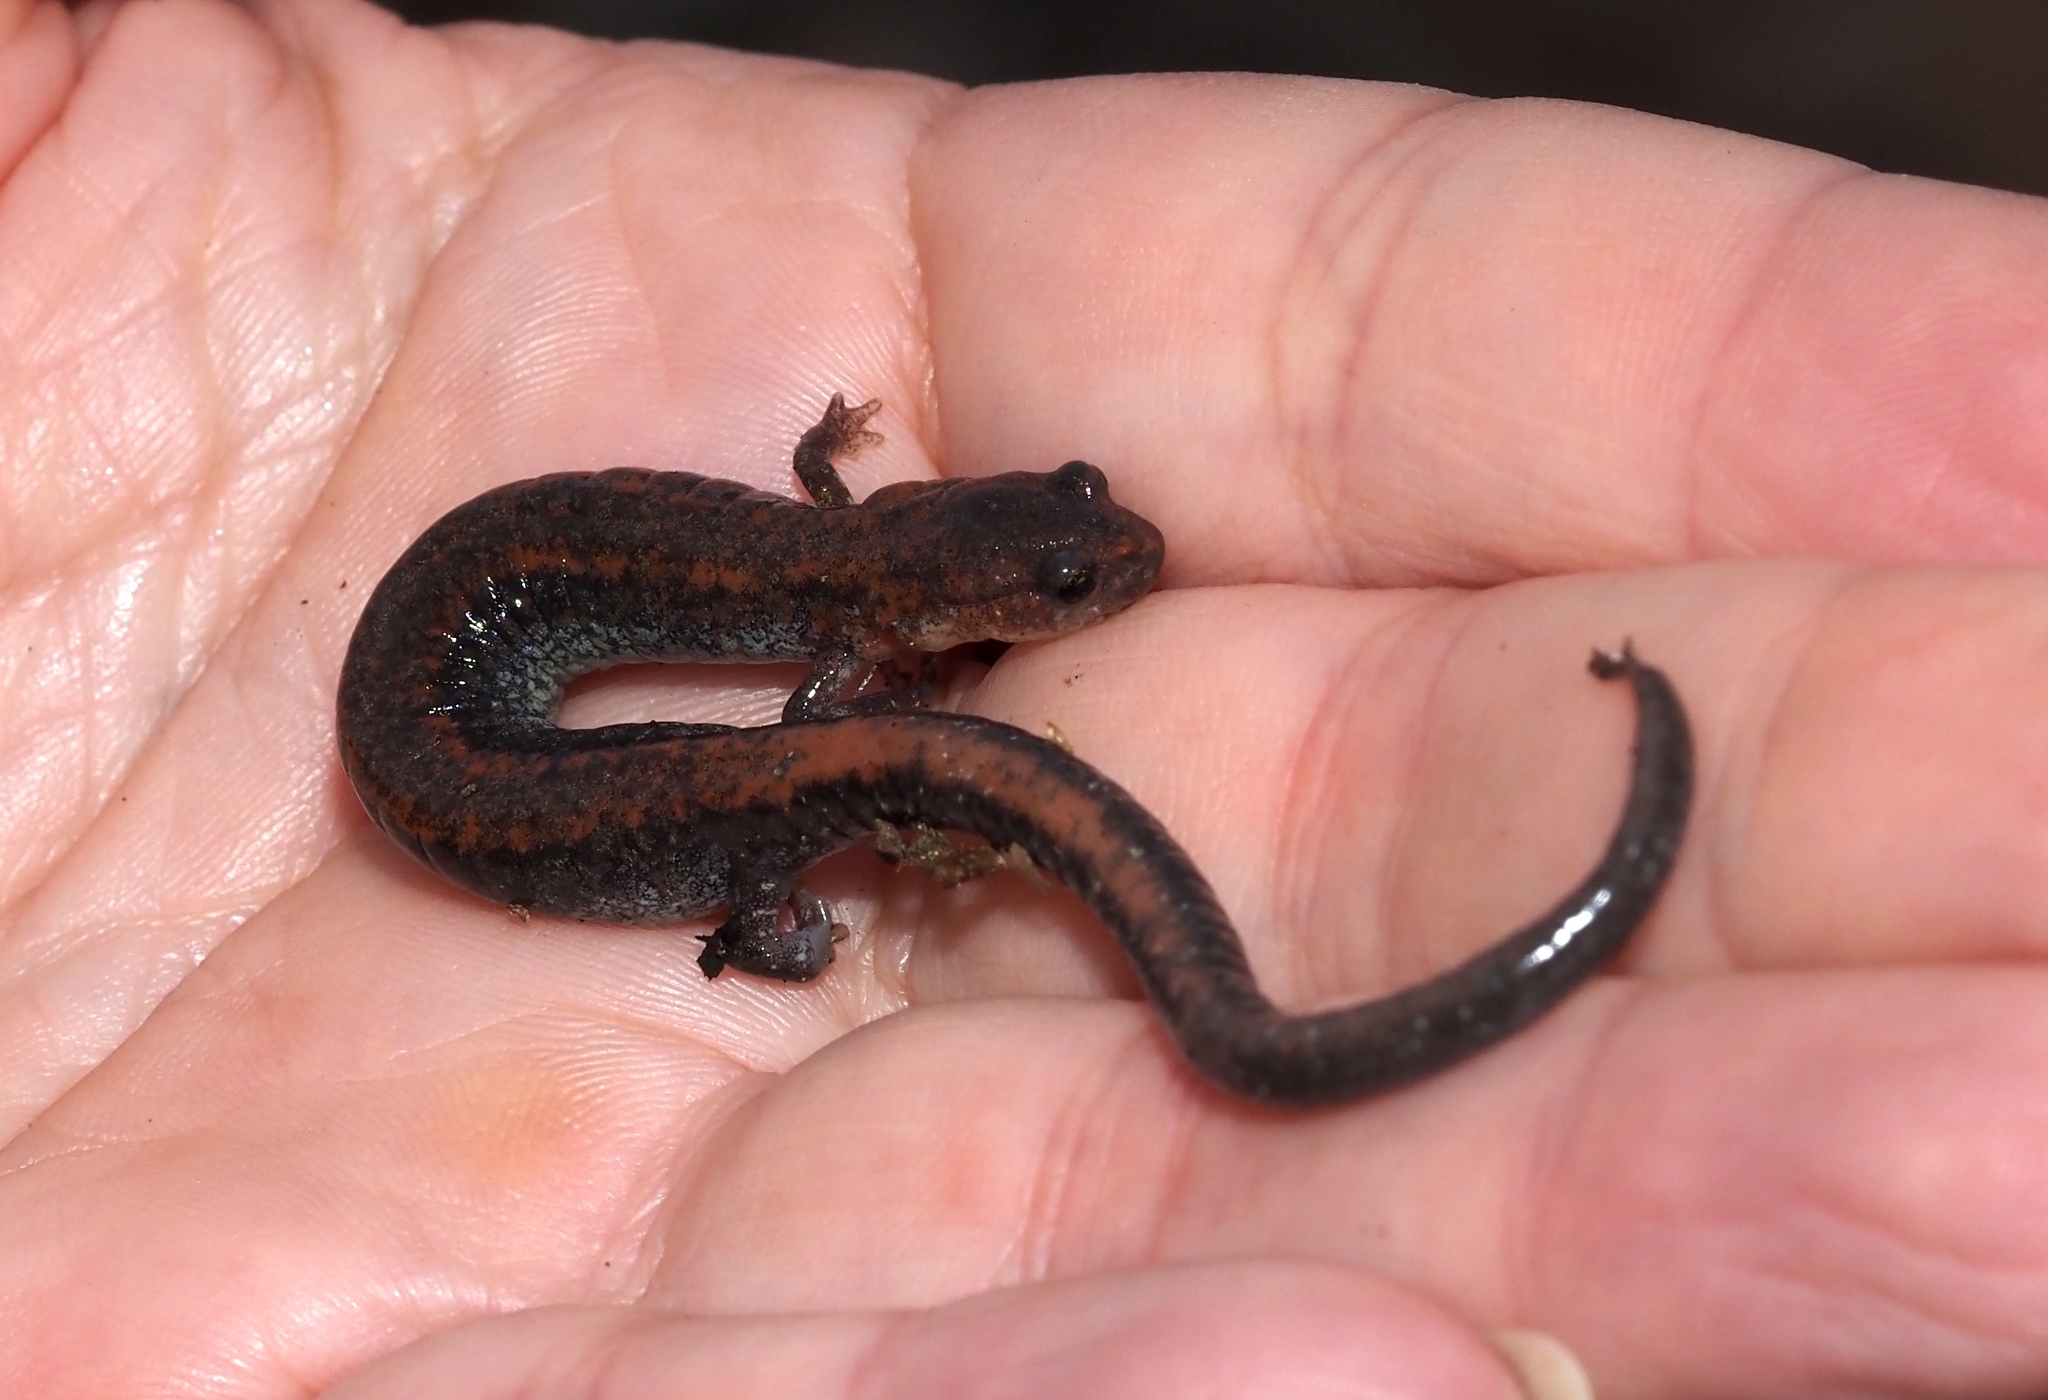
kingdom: Animalia
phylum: Chordata
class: Amphibia
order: Caudata
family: Plethodontidae
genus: Plethodon
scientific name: Plethodon cinereus
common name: Redback salamander
